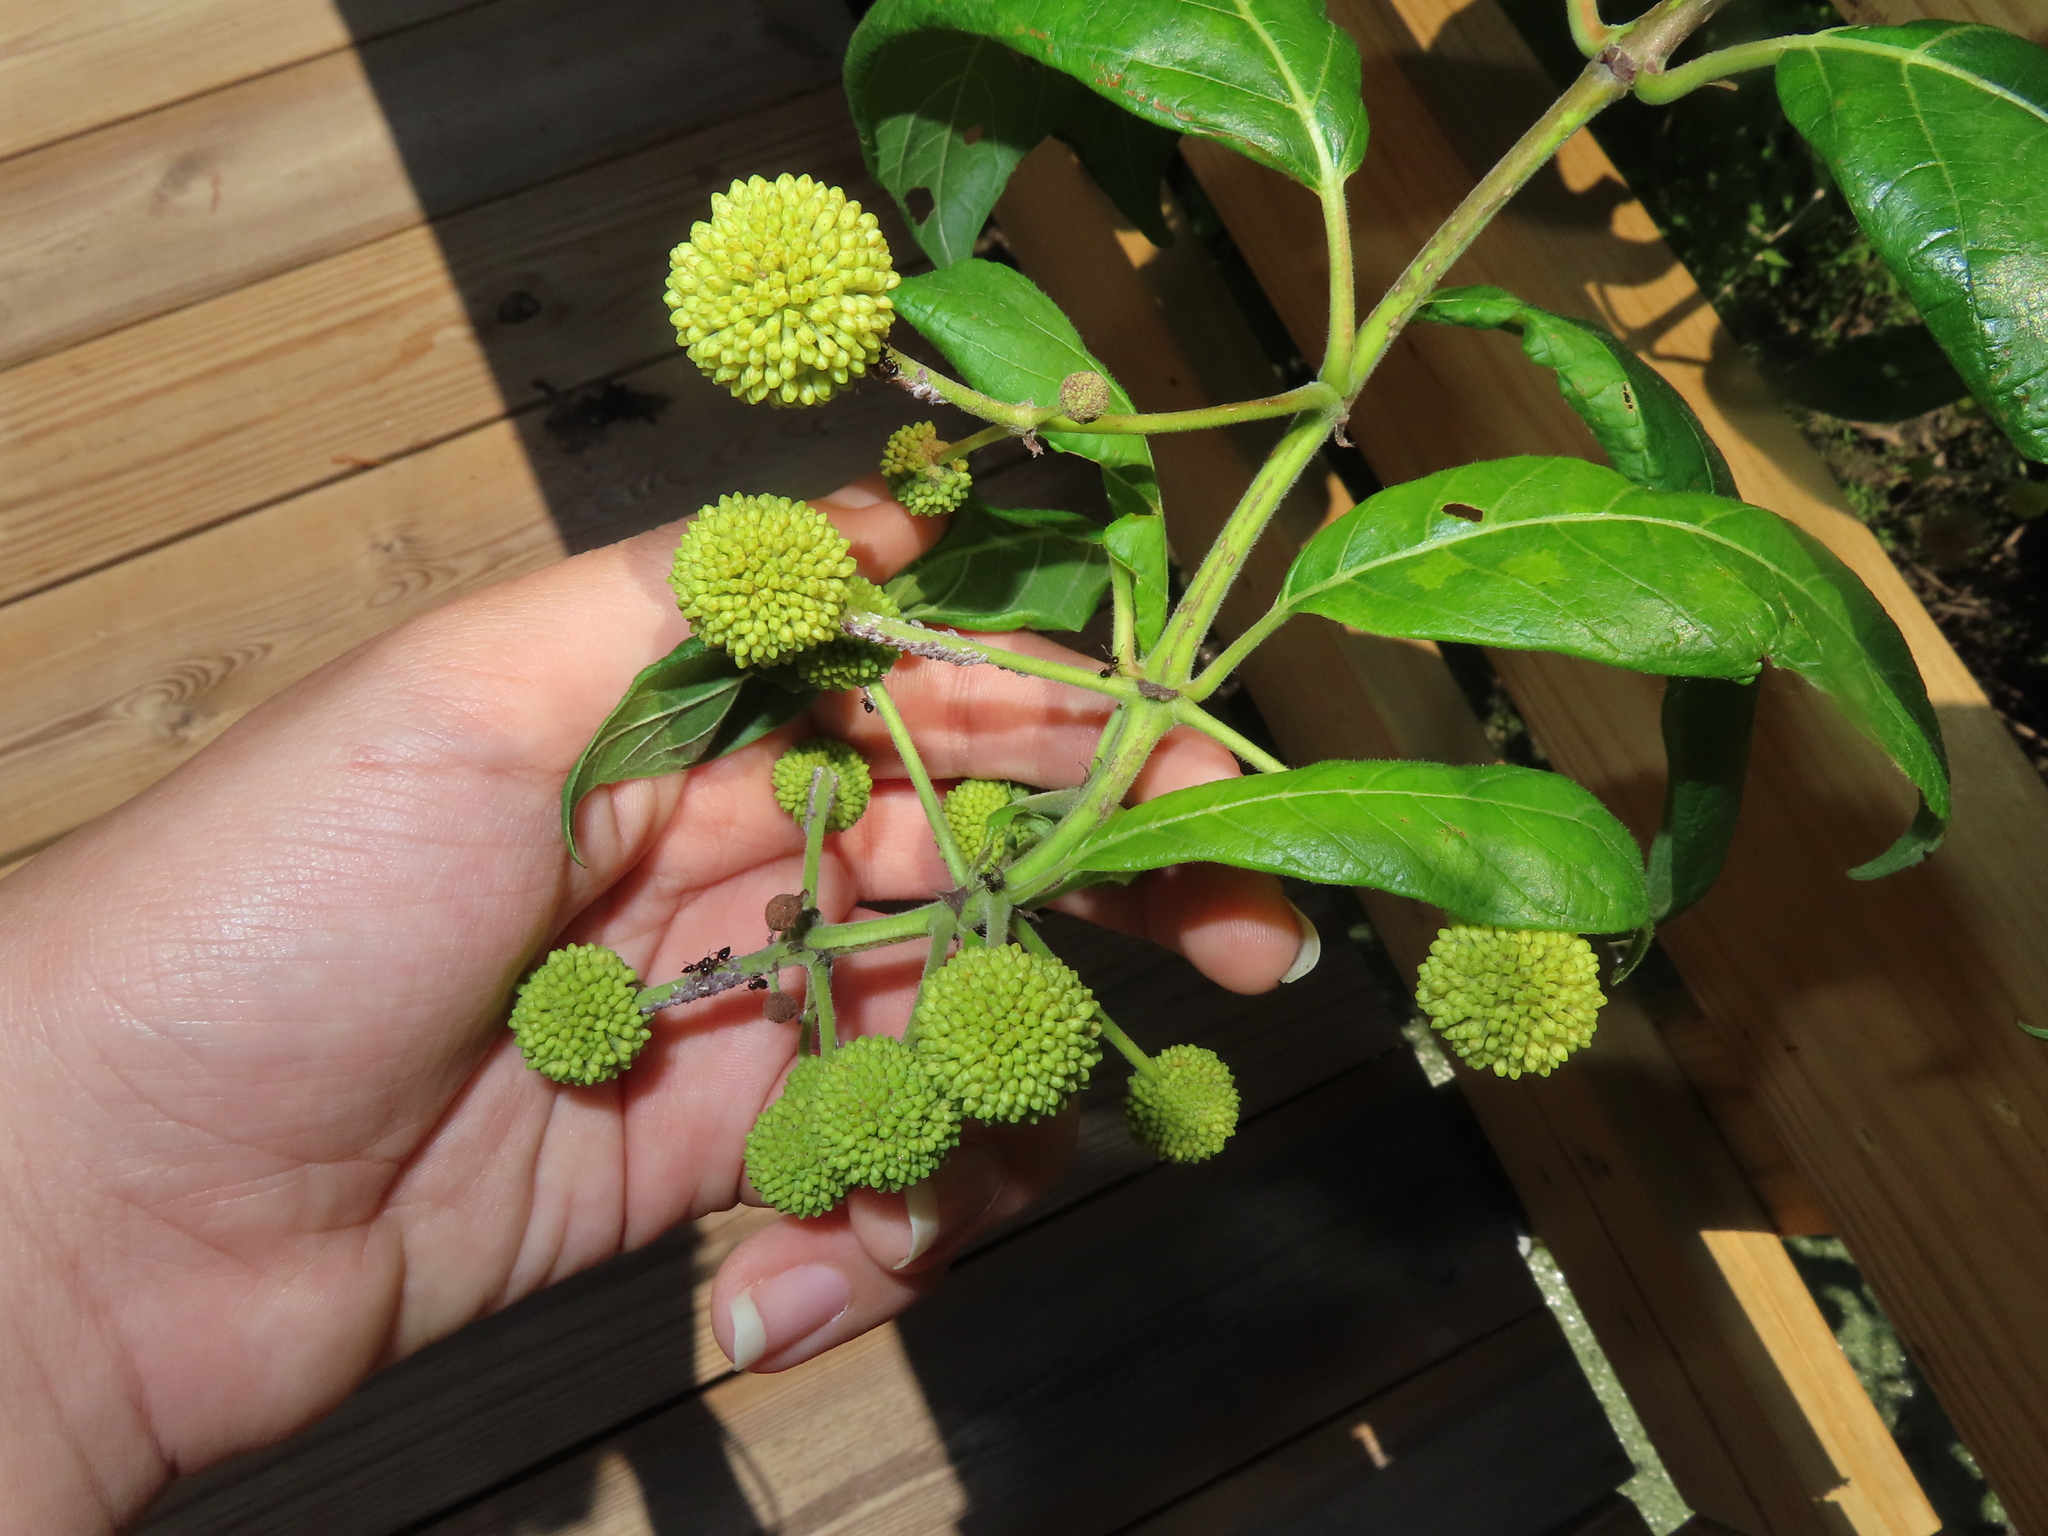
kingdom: Plantae
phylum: Tracheophyta
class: Magnoliopsida
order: Gentianales
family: Rubiaceae
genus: Cephalanthus
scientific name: Cephalanthus occidentalis
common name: Button-willow
